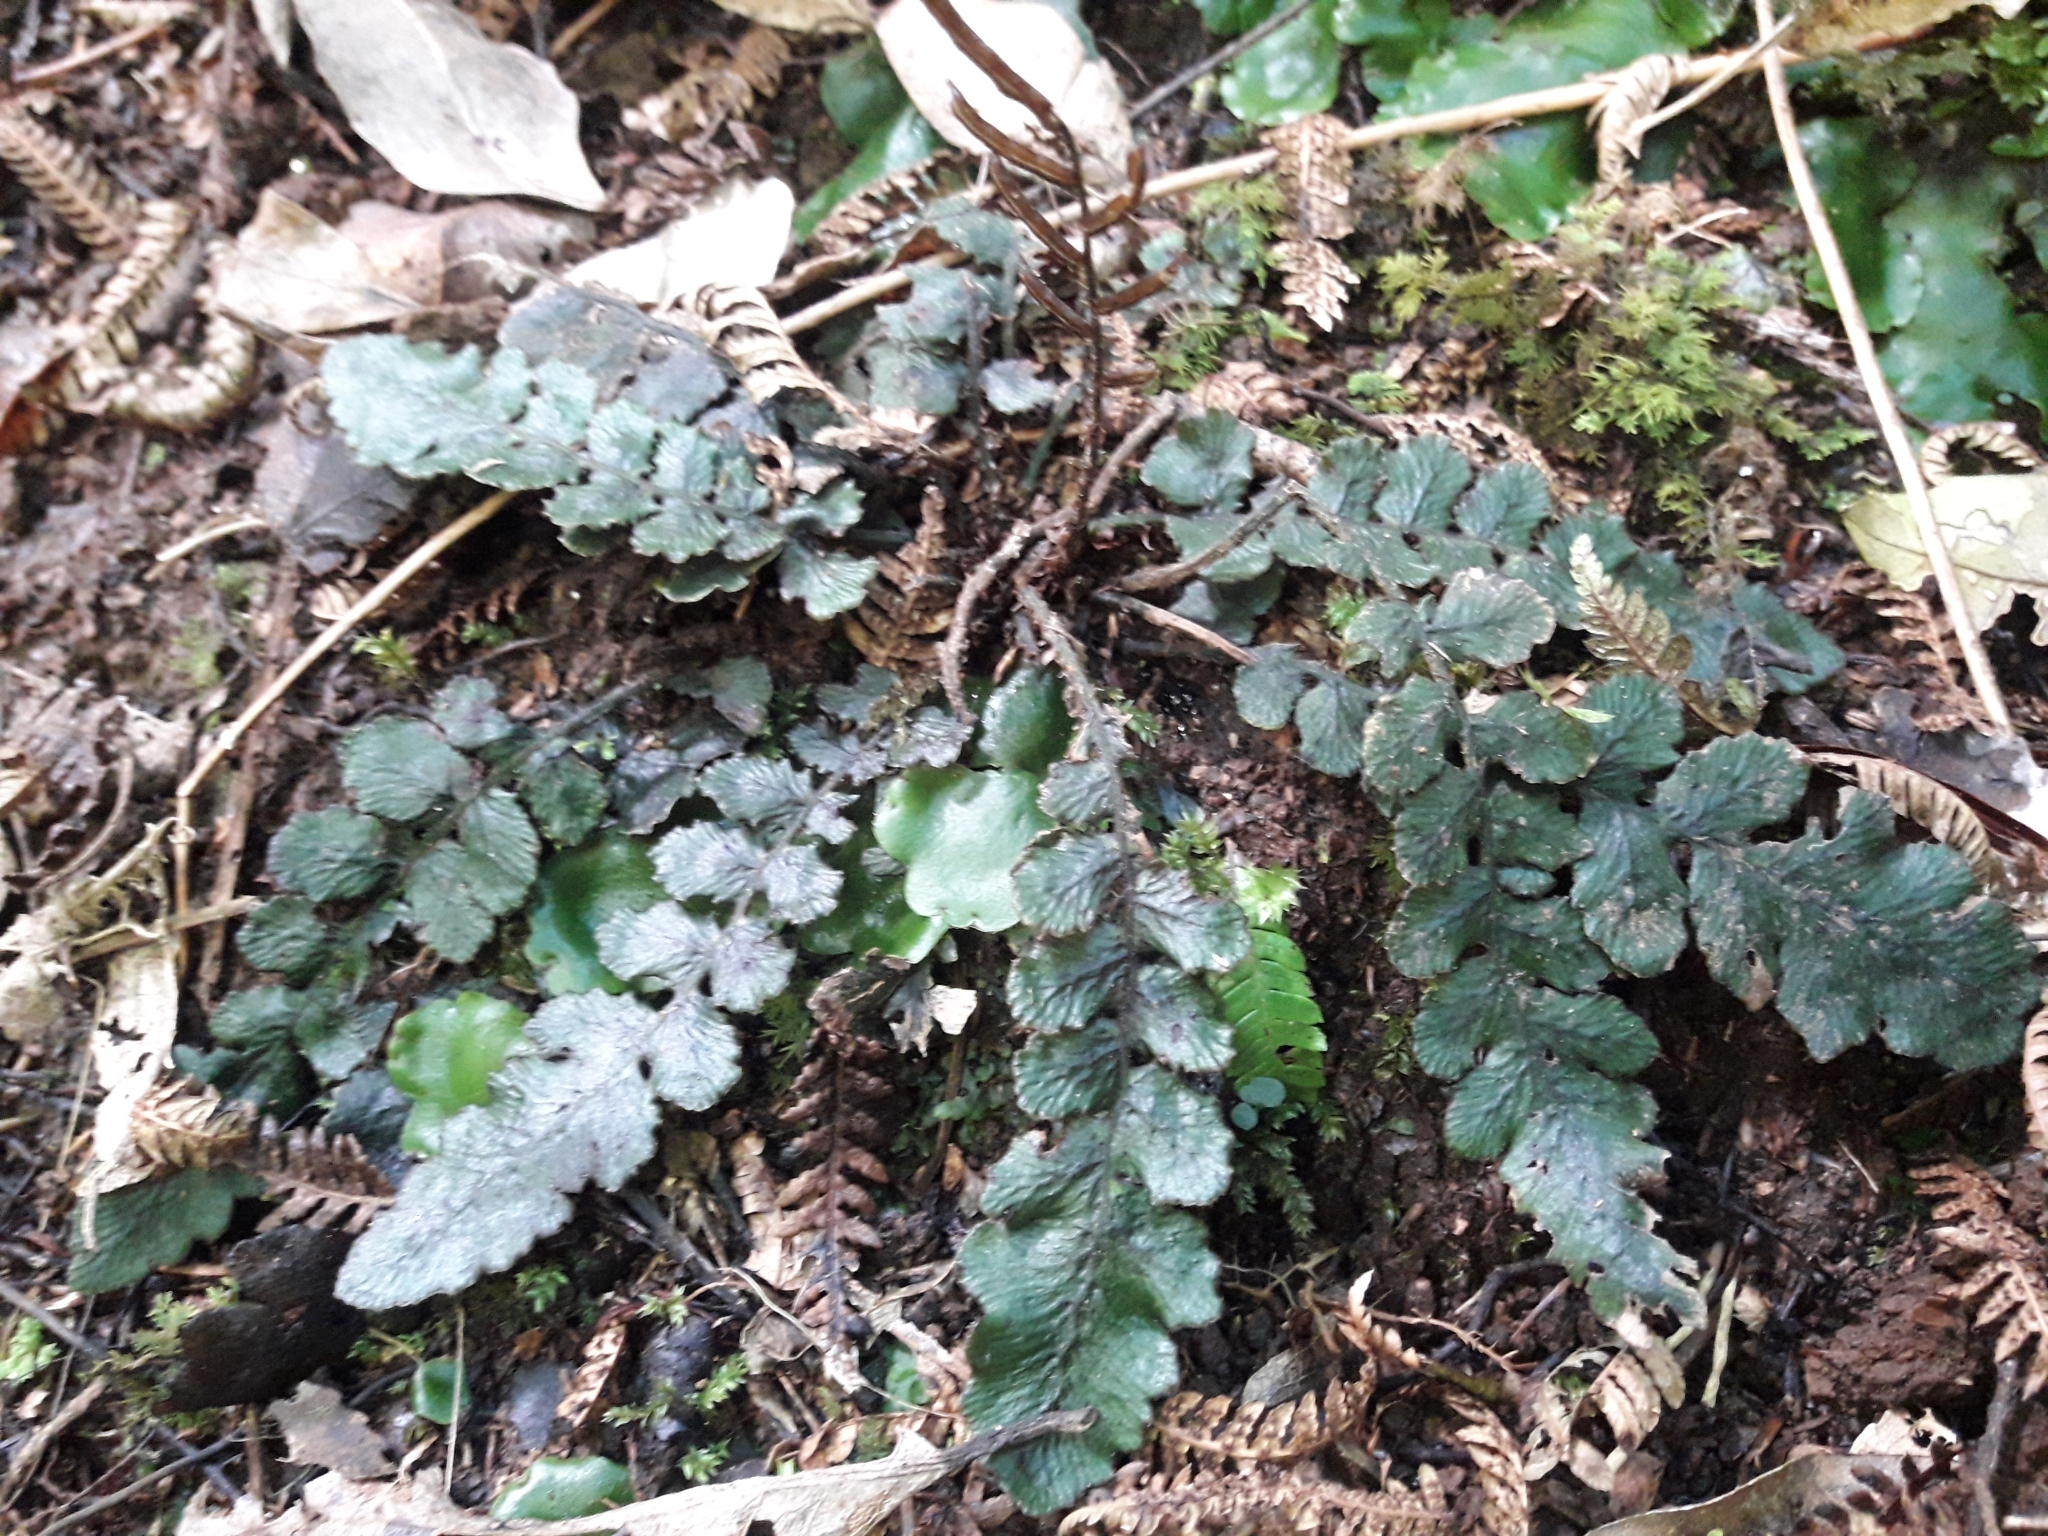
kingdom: Plantae
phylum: Tracheophyta
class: Polypodiopsida
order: Polypodiales
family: Blechnaceae
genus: Cranfillia
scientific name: Cranfillia nigra
